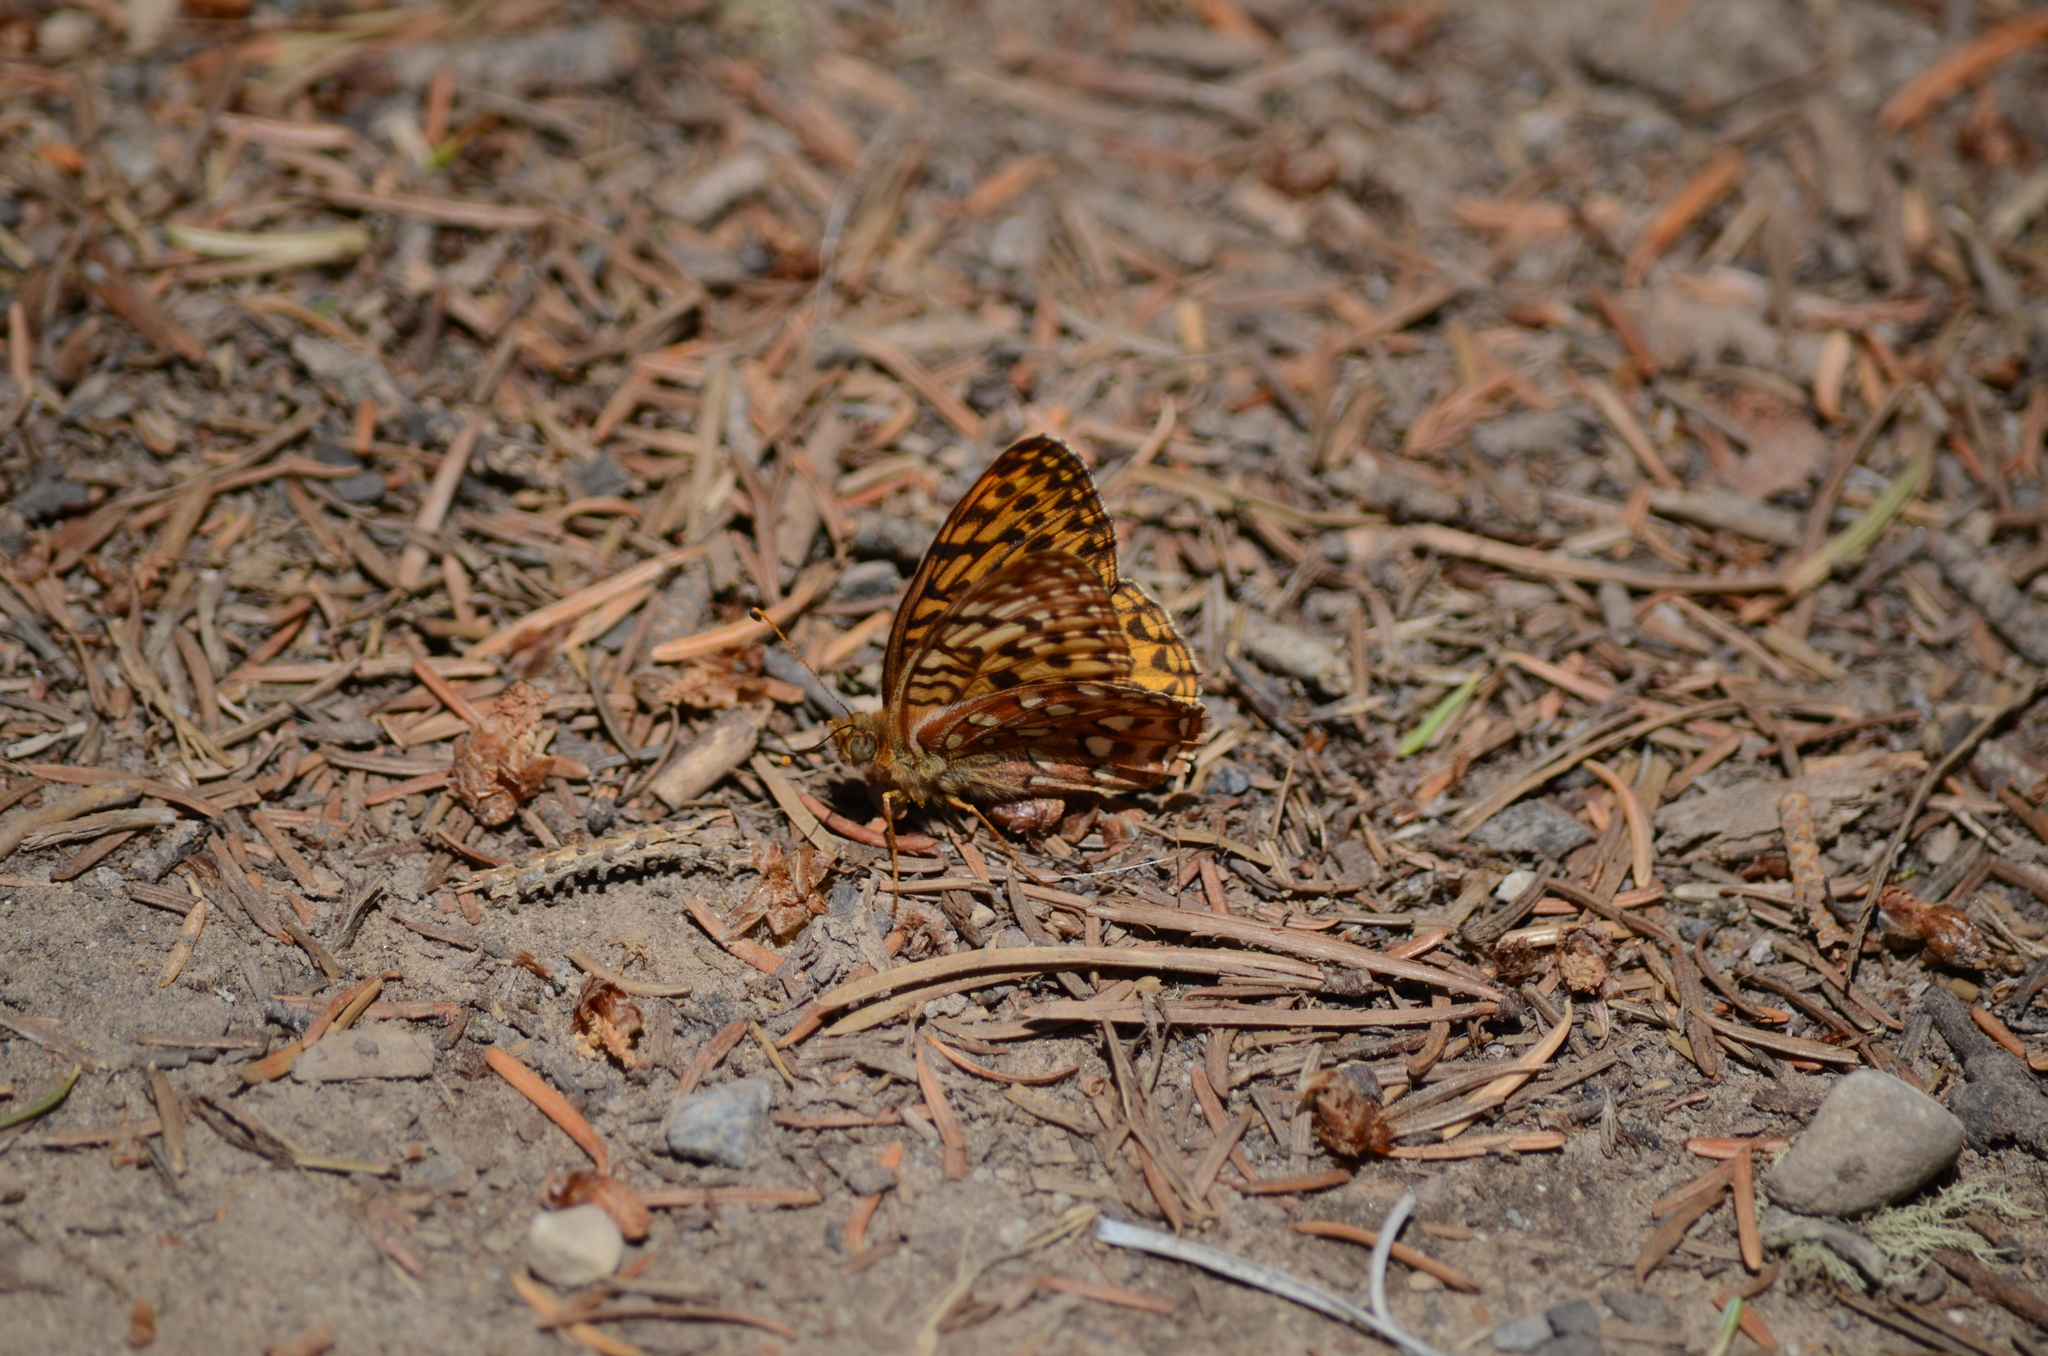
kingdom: Animalia
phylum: Arthropoda
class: Insecta
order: Lepidoptera
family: Nymphalidae
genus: Speyeria
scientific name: Speyeria hydaspe
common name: Hydaspe fritillary
